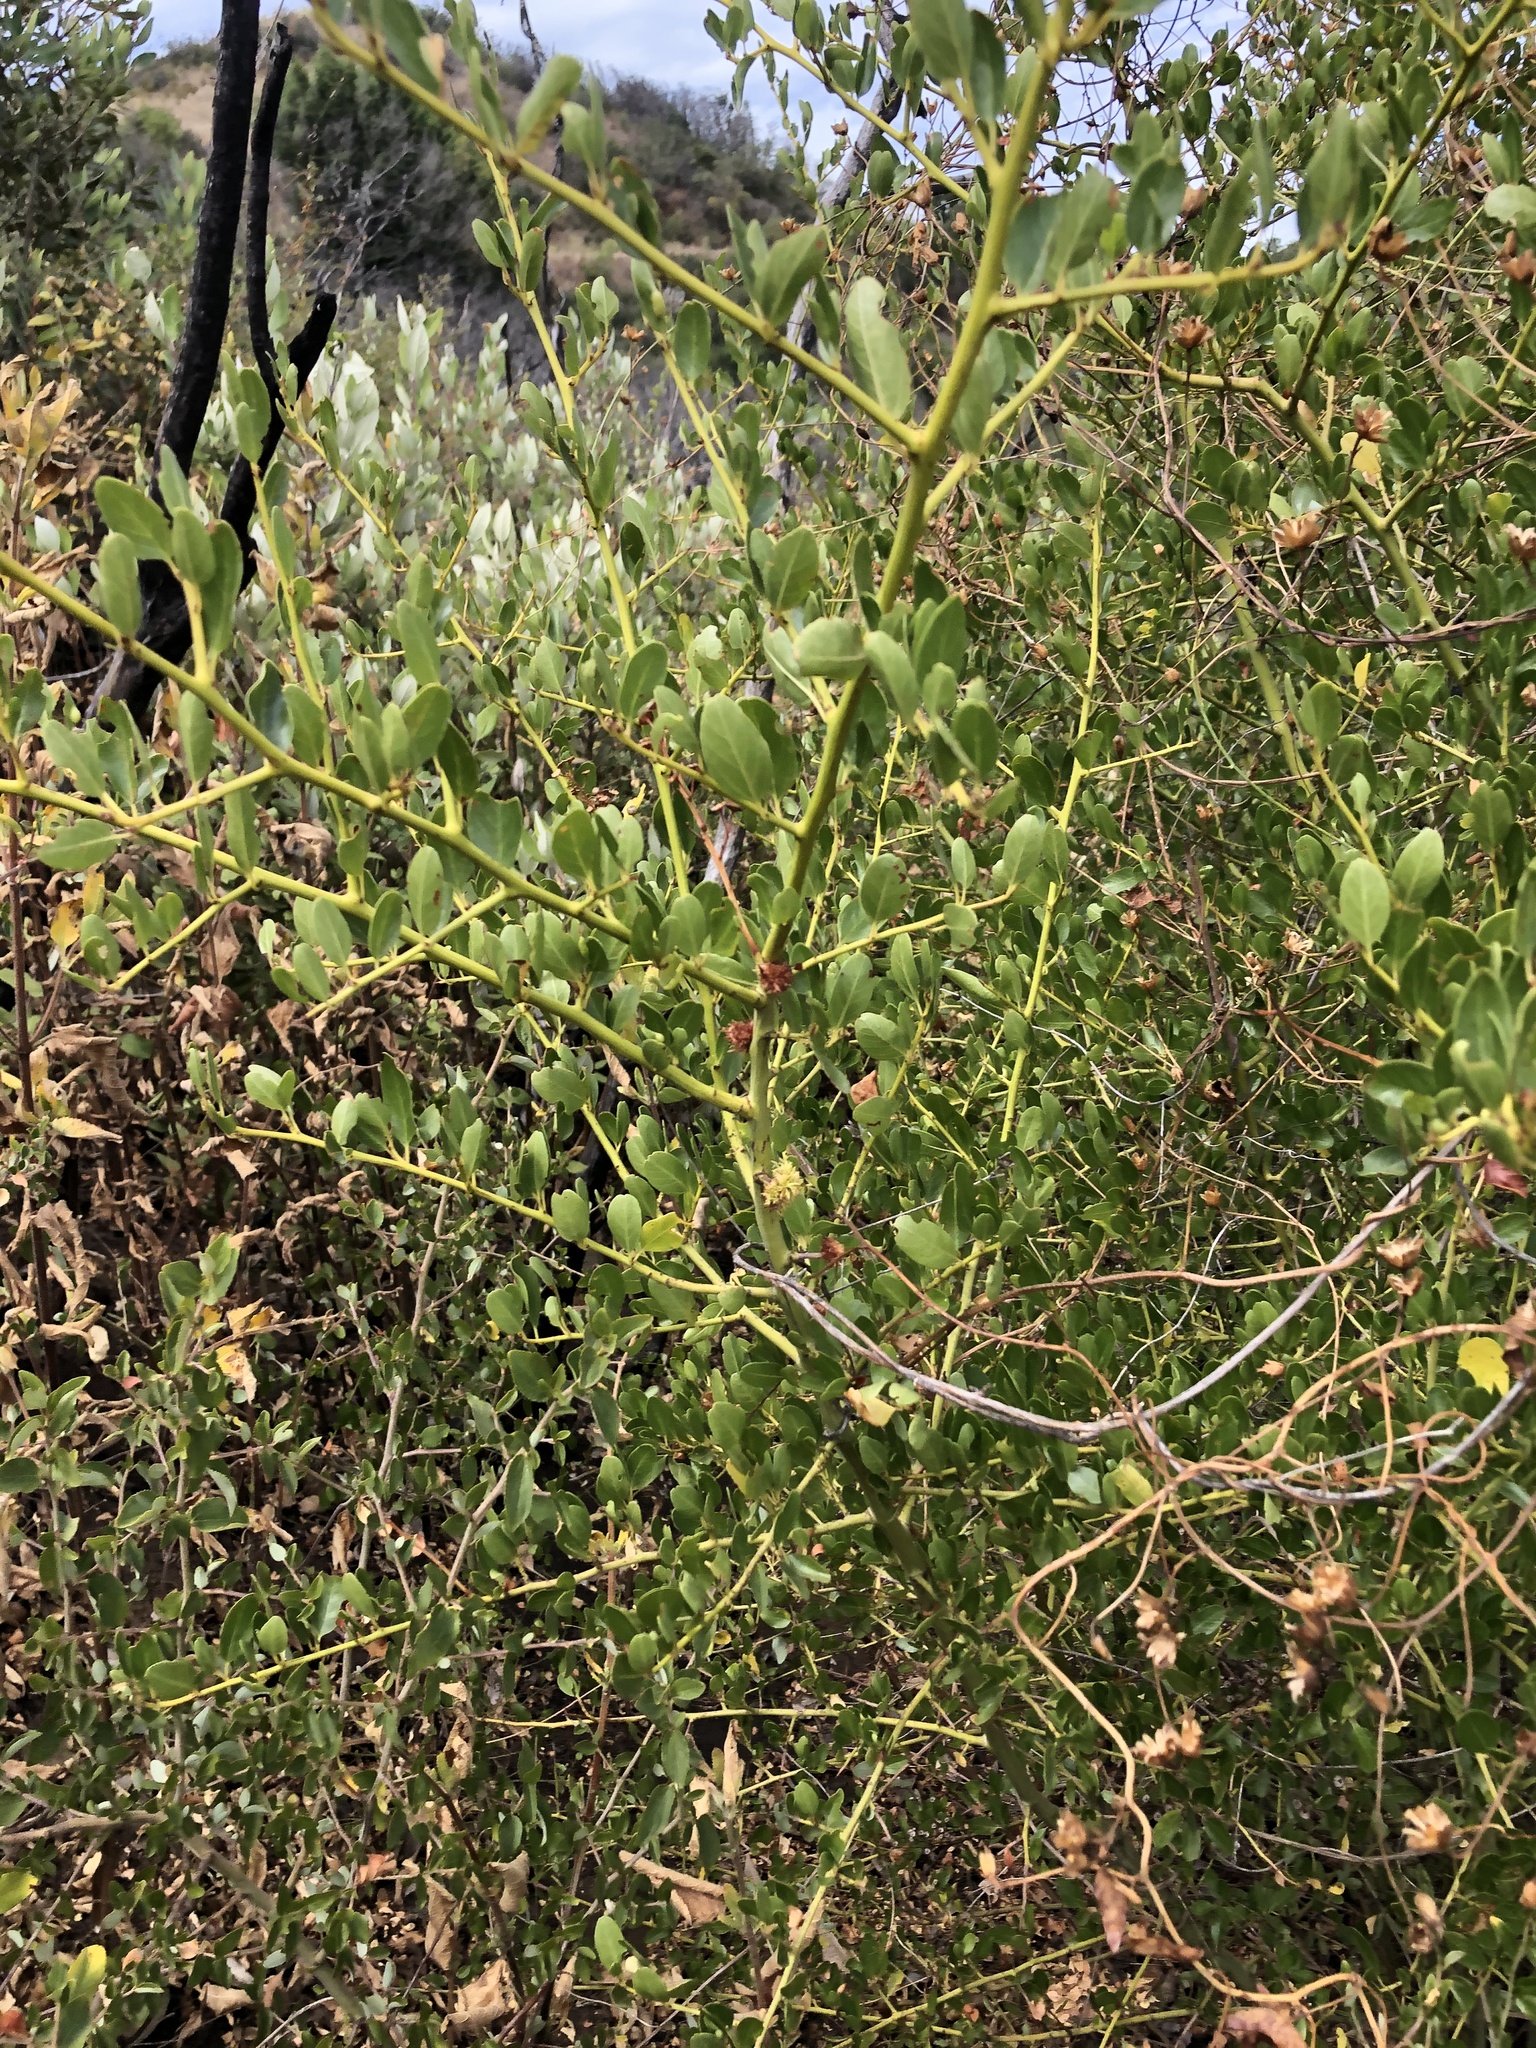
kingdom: Plantae
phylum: Tracheophyta
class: Magnoliopsida
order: Rosales
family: Rhamnaceae
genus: Ceanothus
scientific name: Ceanothus spinosus
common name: Greenbark whitethorn
